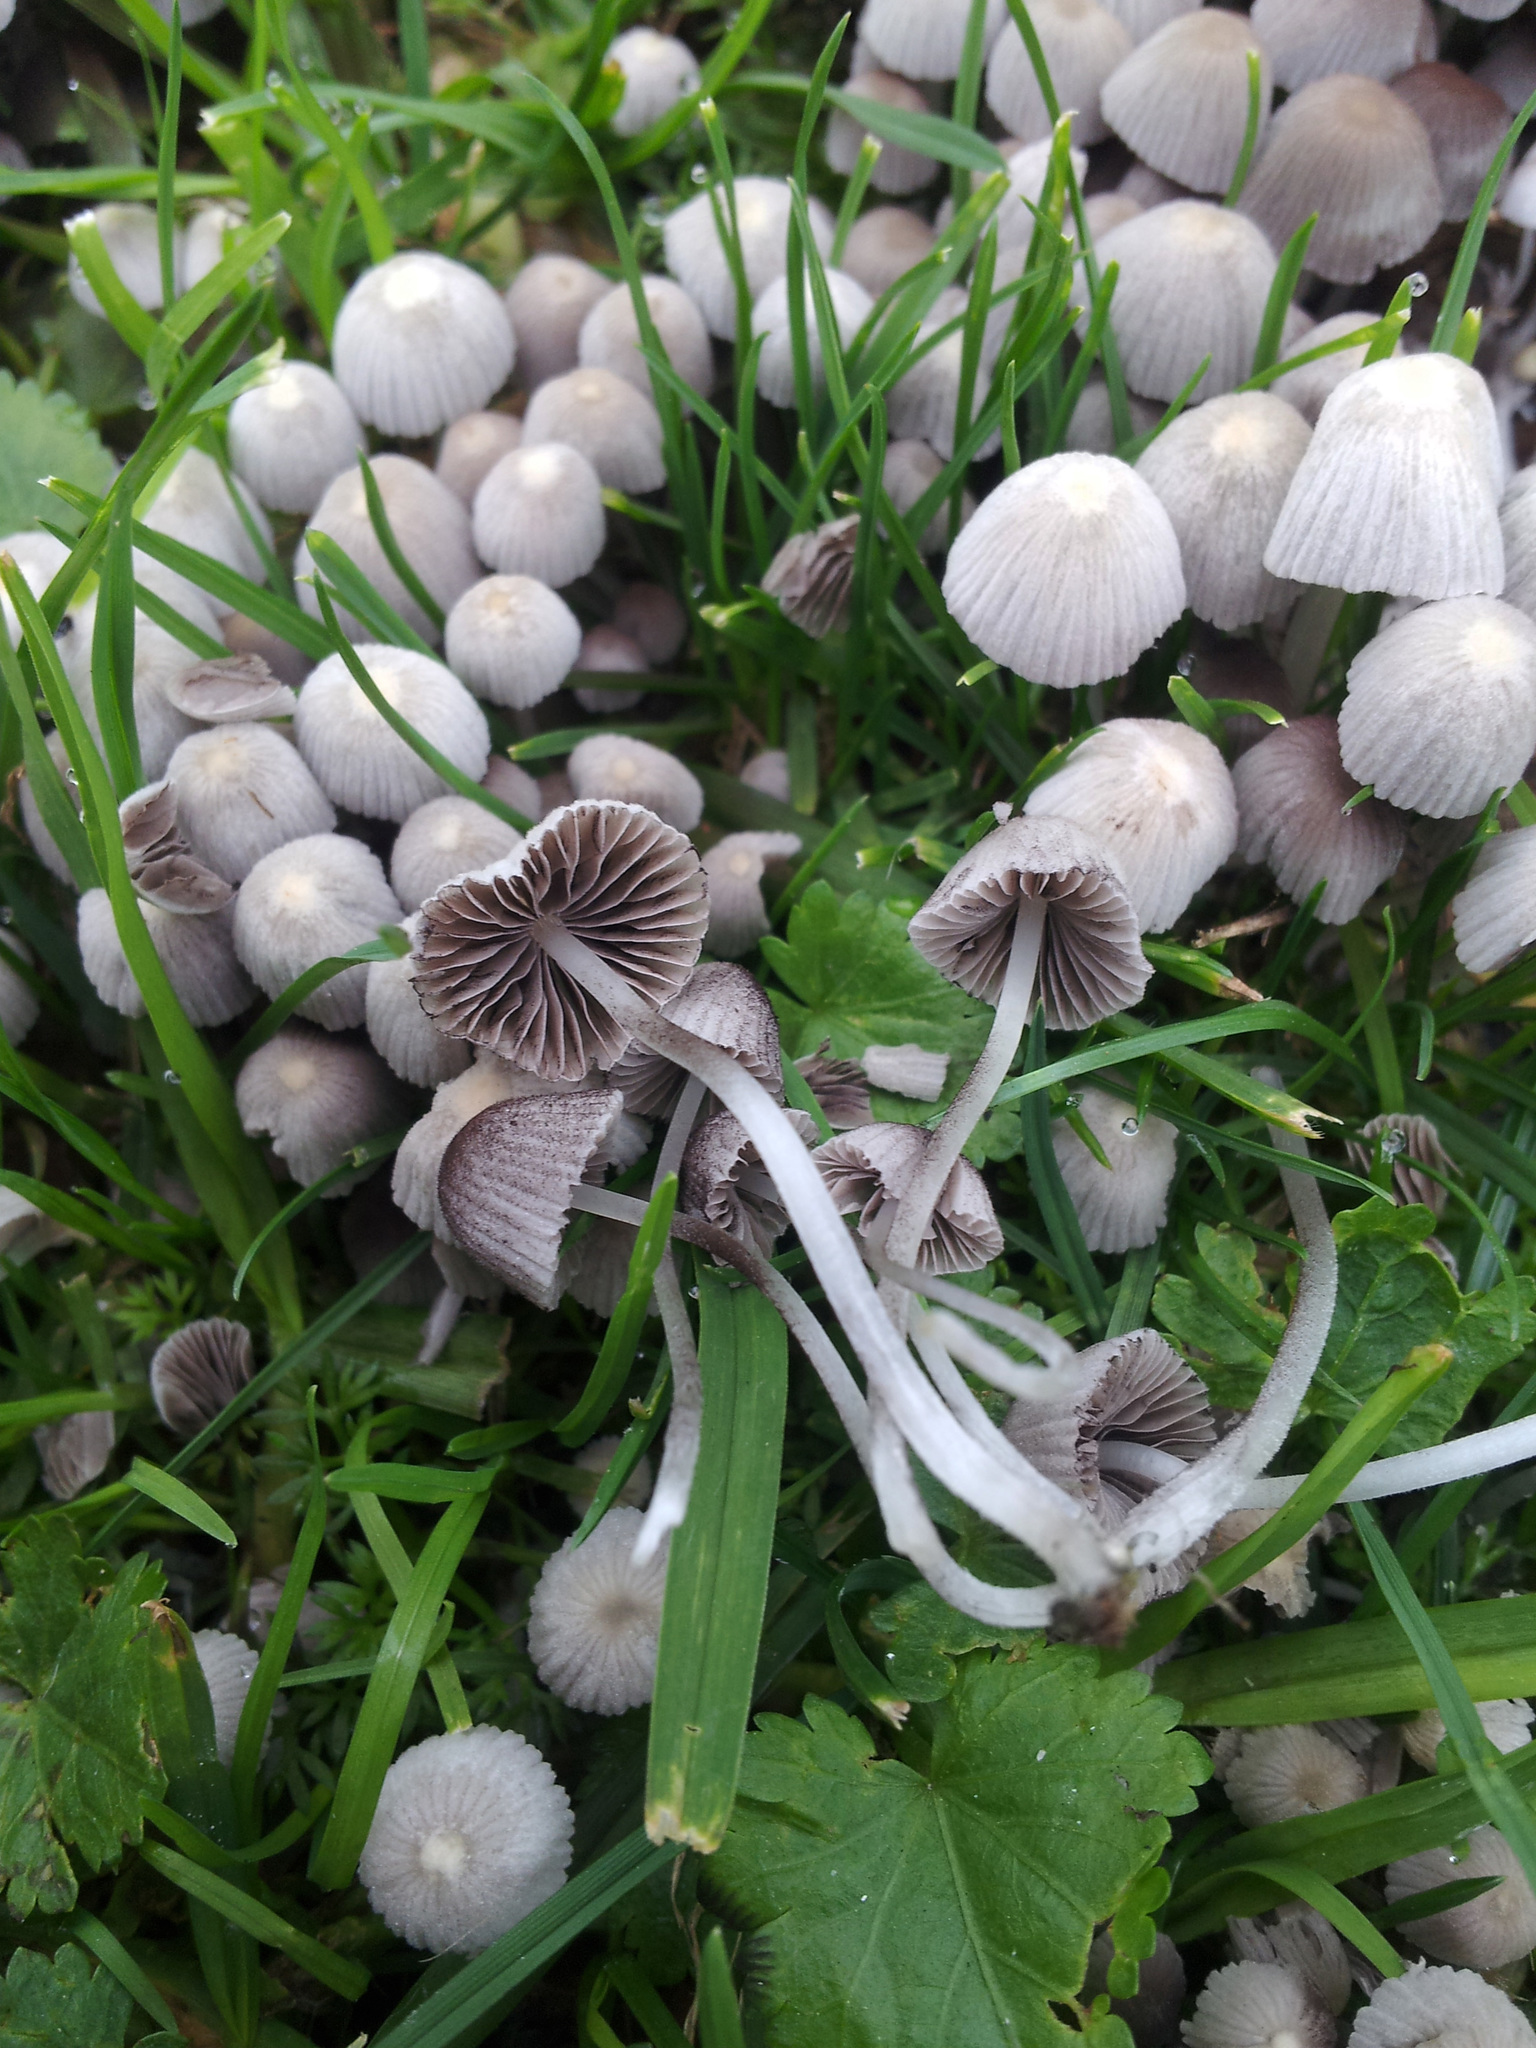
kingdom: Fungi
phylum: Basidiomycota
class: Agaricomycetes
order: Agaricales
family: Psathyrellaceae
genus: Coprinellus
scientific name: Coprinellus
